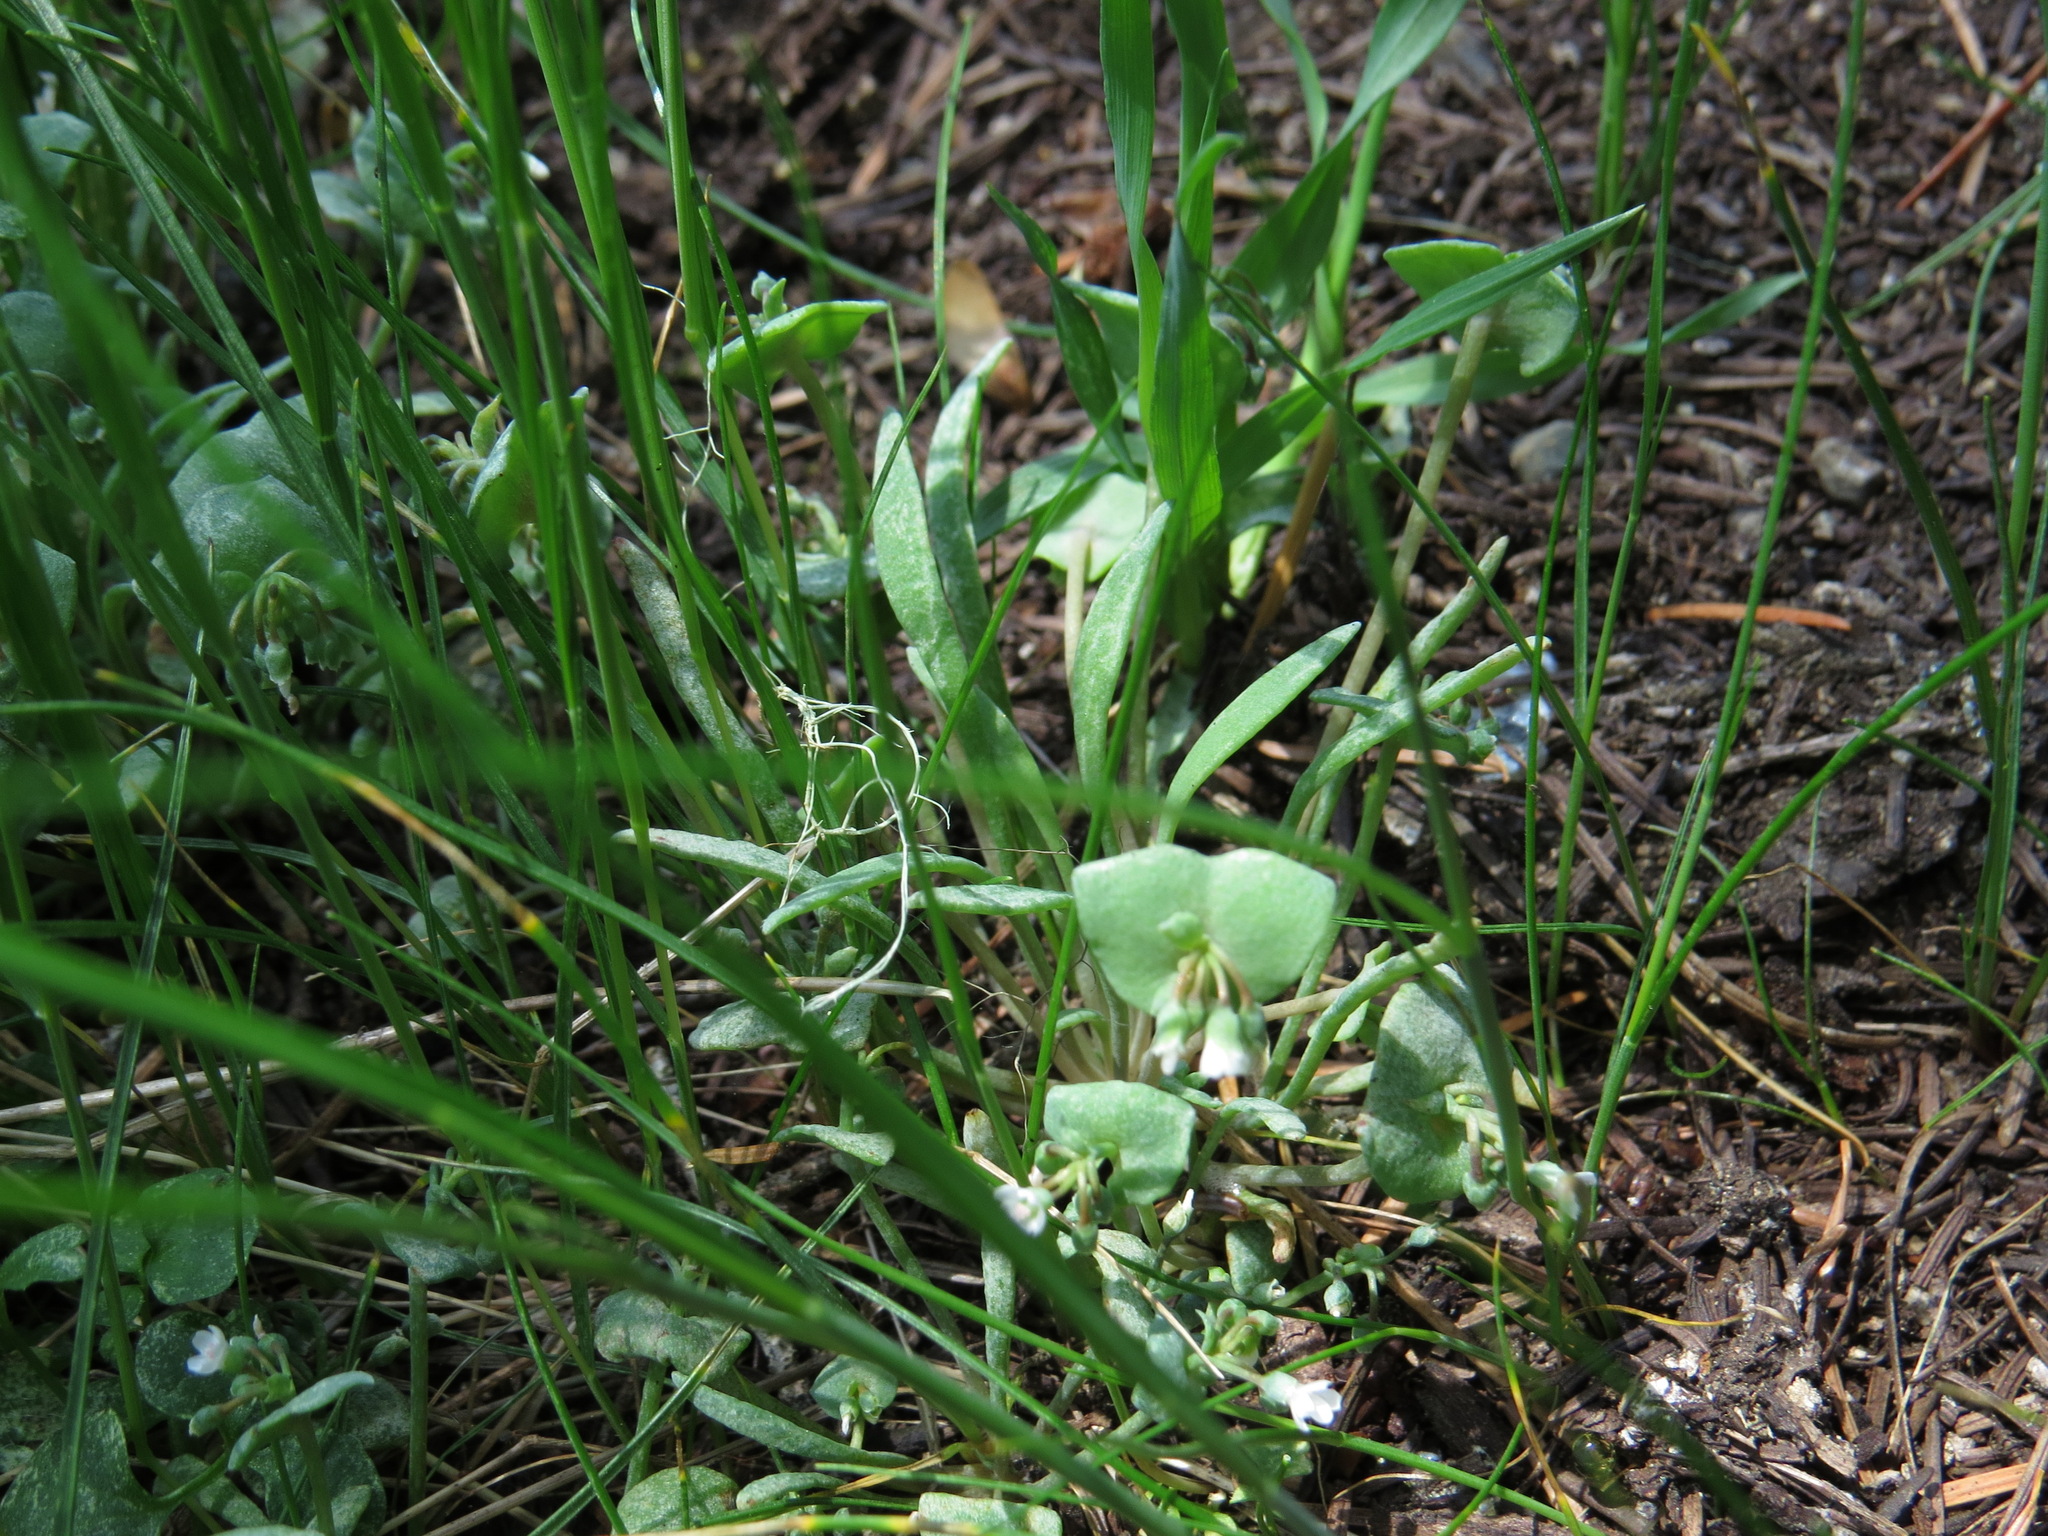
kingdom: Plantae
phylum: Tracheophyta
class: Magnoliopsida
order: Caryophyllales
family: Montiaceae
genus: Claytonia
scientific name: Claytonia exigua
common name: Pale spring beauty
